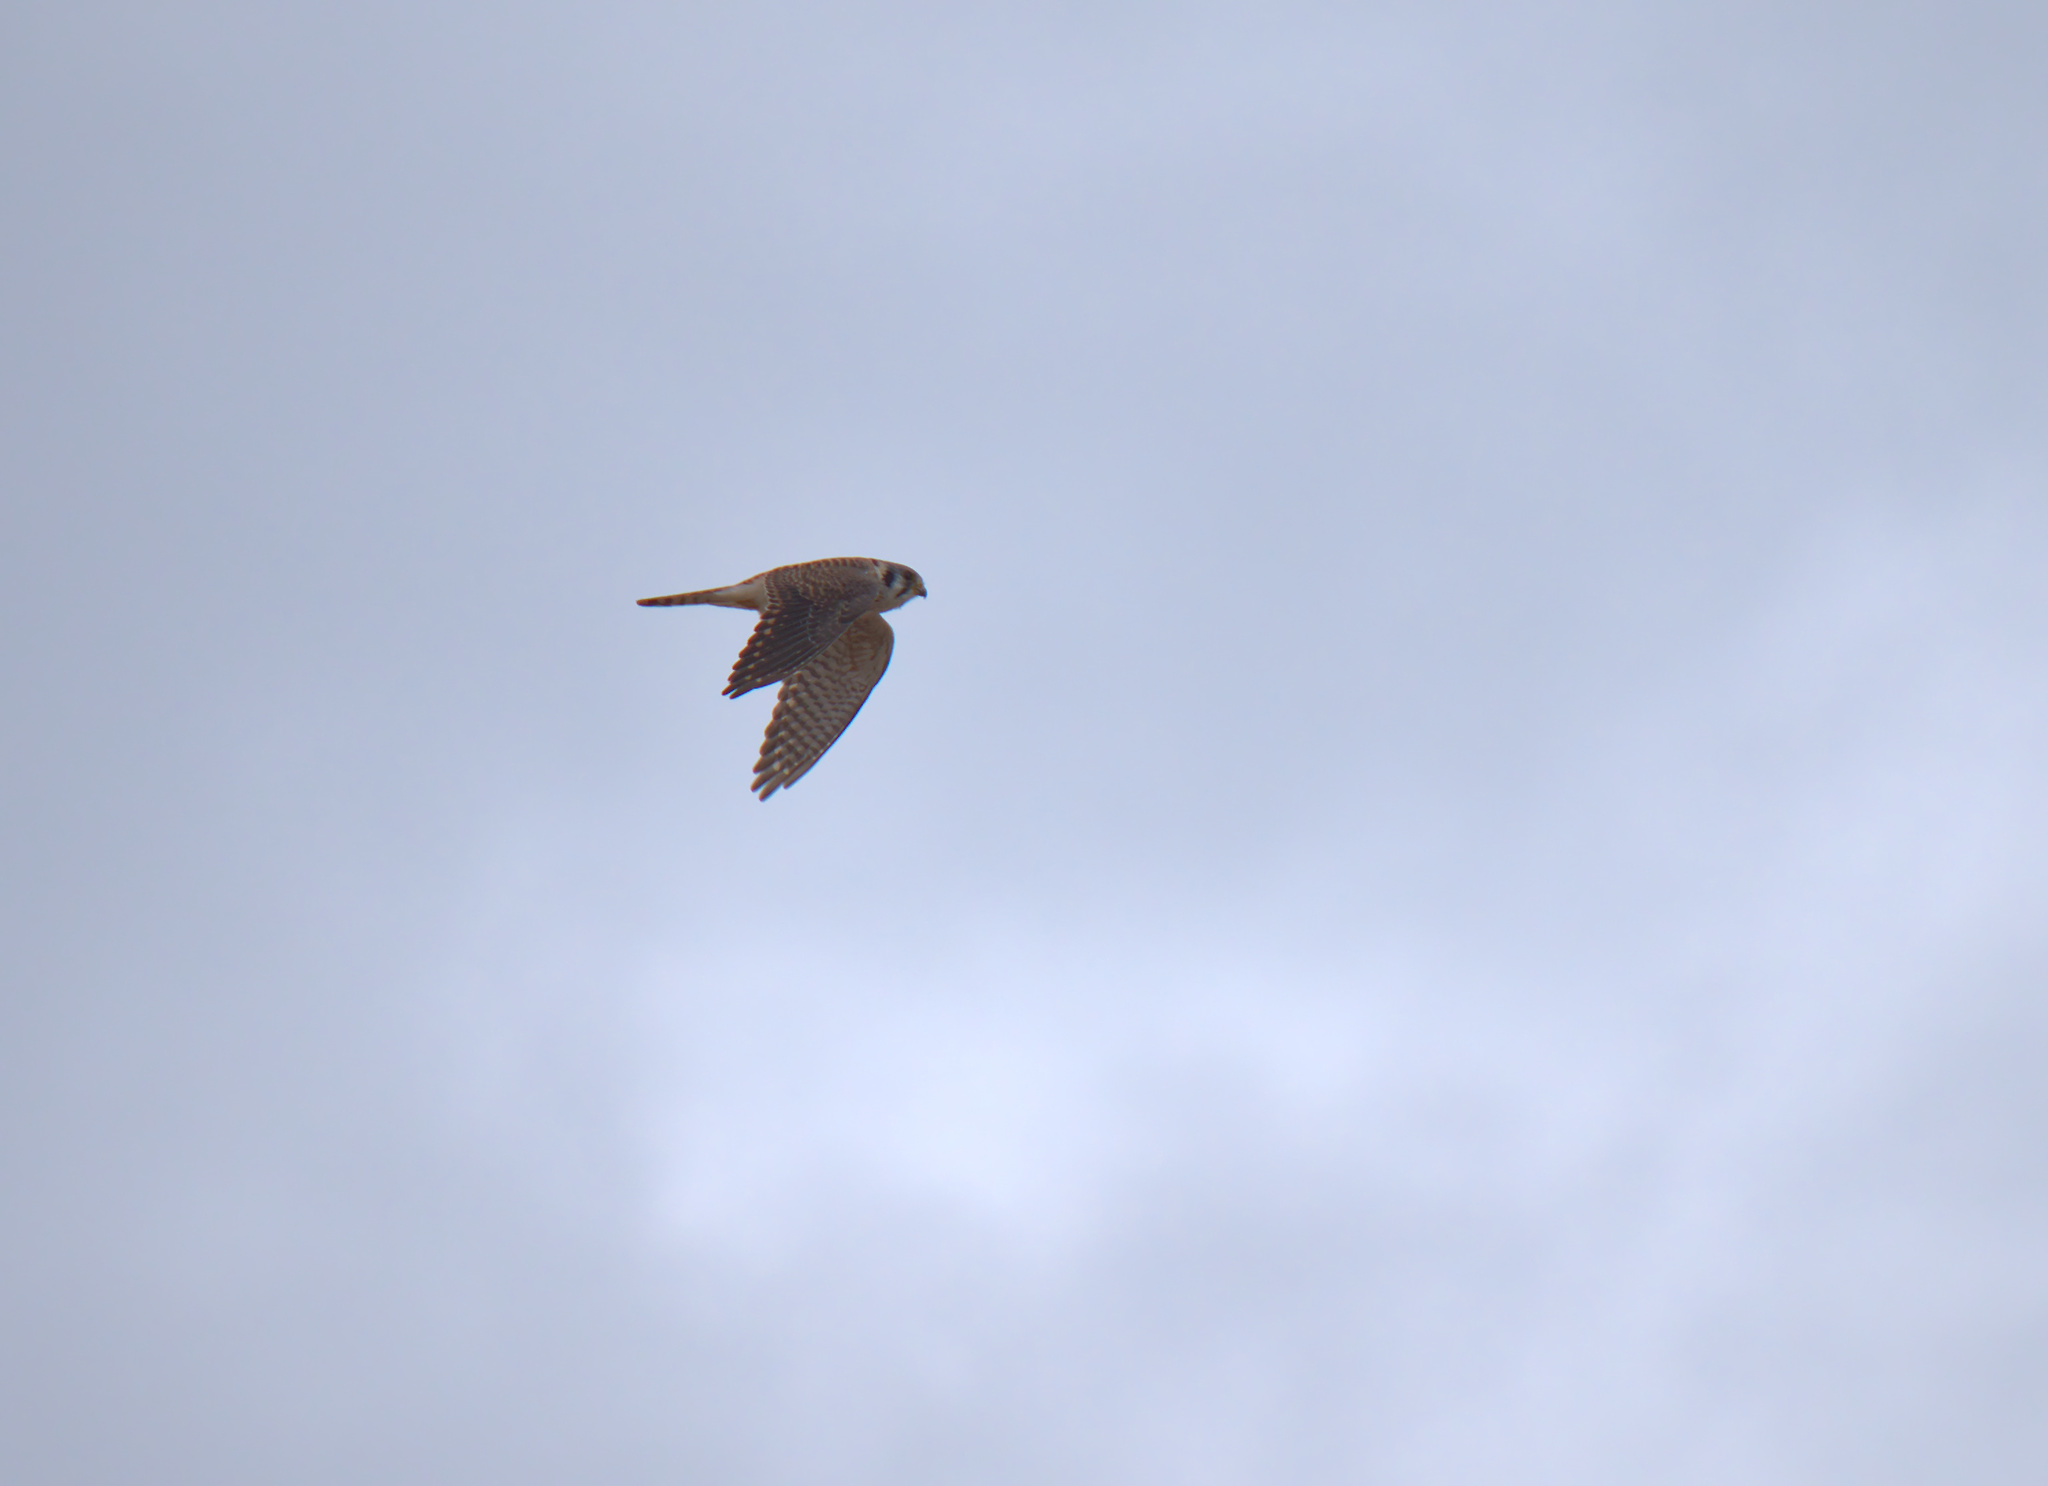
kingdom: Animalia
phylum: Chordata
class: Aves
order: Falconiformes
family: Falconidae
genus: Falco
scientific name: Falco sparverius
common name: American kestrel
